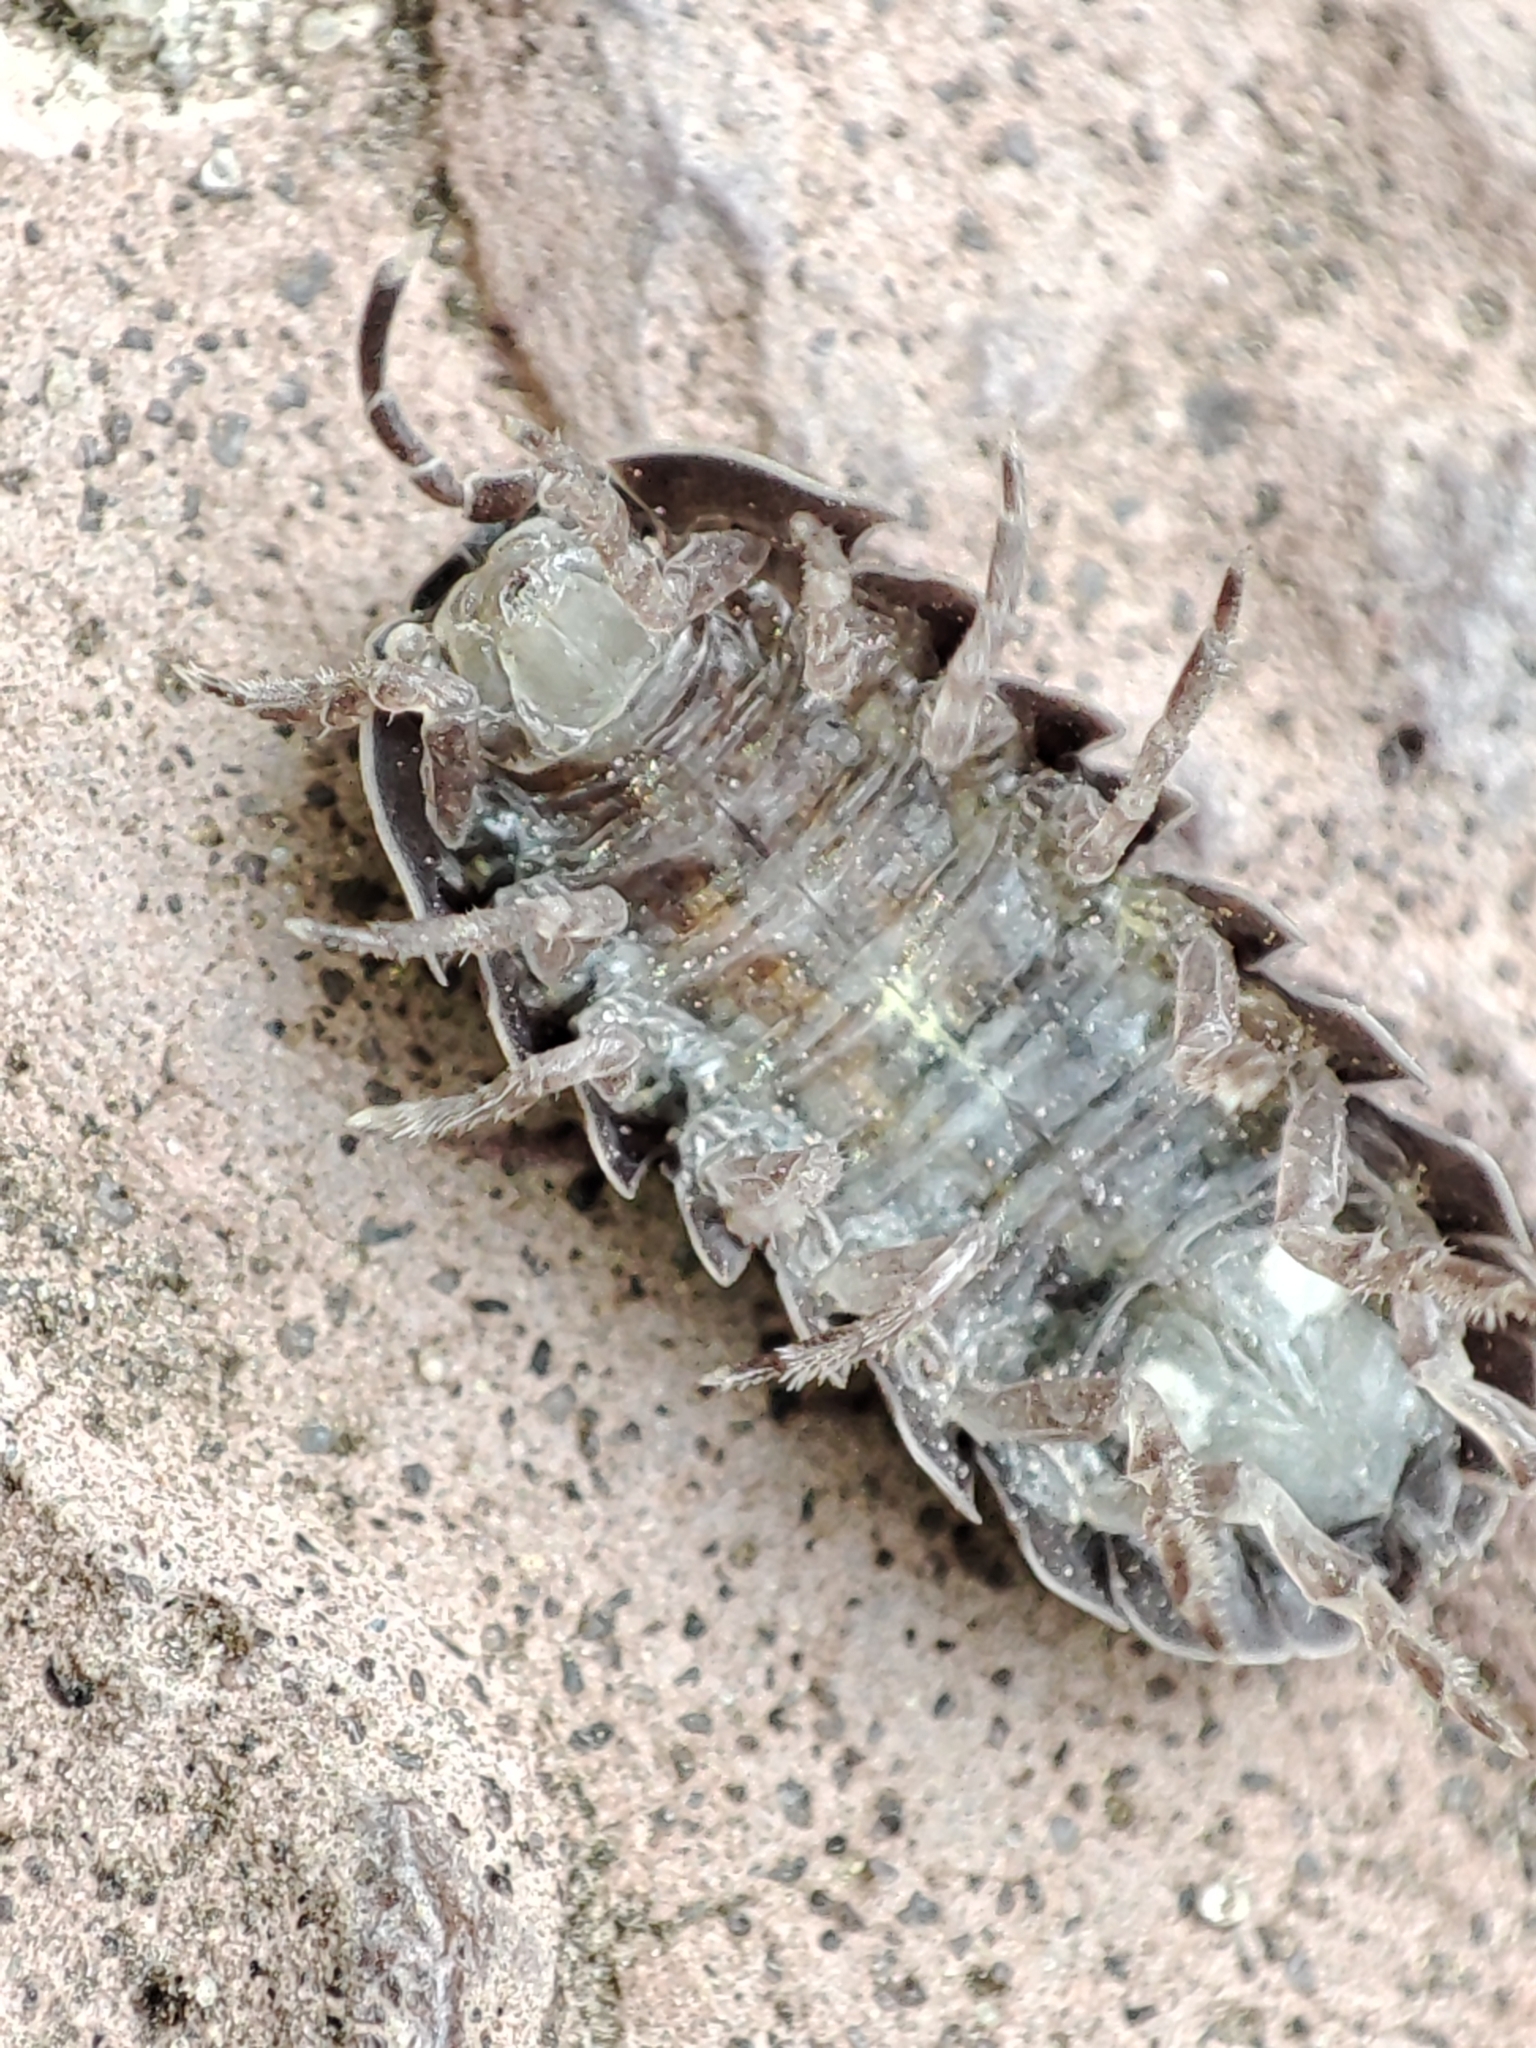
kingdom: Animalia
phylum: Arthropoda
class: Malacostraca
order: Isopoda
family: Armadillidiidae
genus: Armadillidium
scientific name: Armadillidium vulgare
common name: Common pill woodlouse
